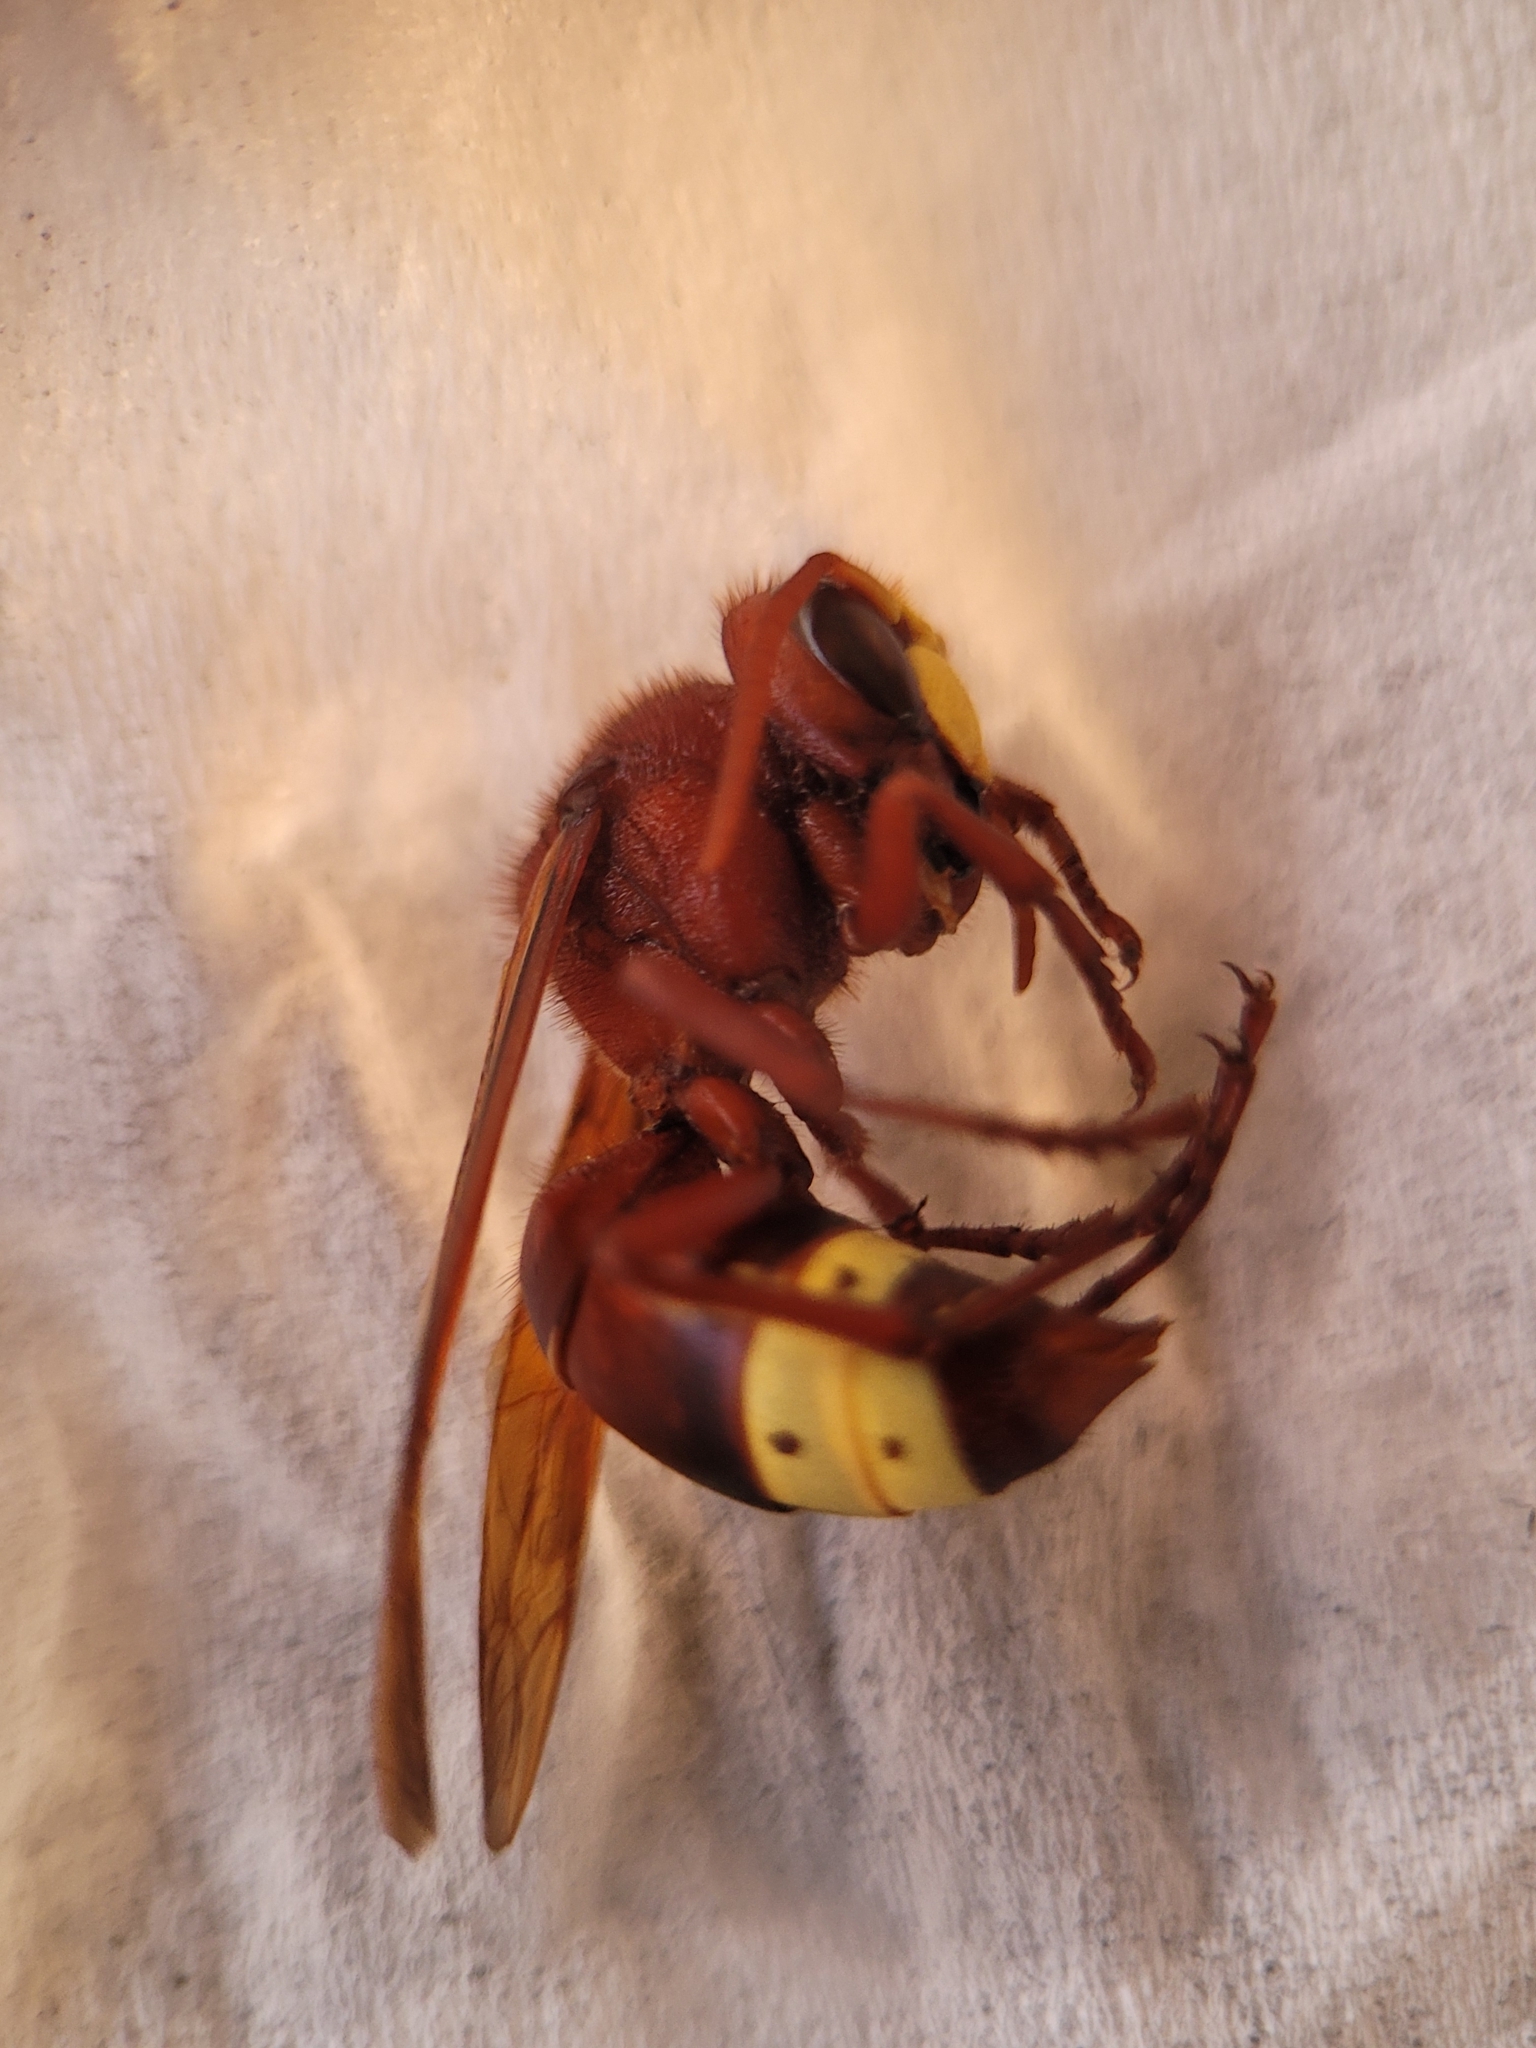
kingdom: Animalia
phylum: Arthropoda
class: Insecta
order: Hymenoptera
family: Vespidae
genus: Vespa
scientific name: Vespa orientalis
